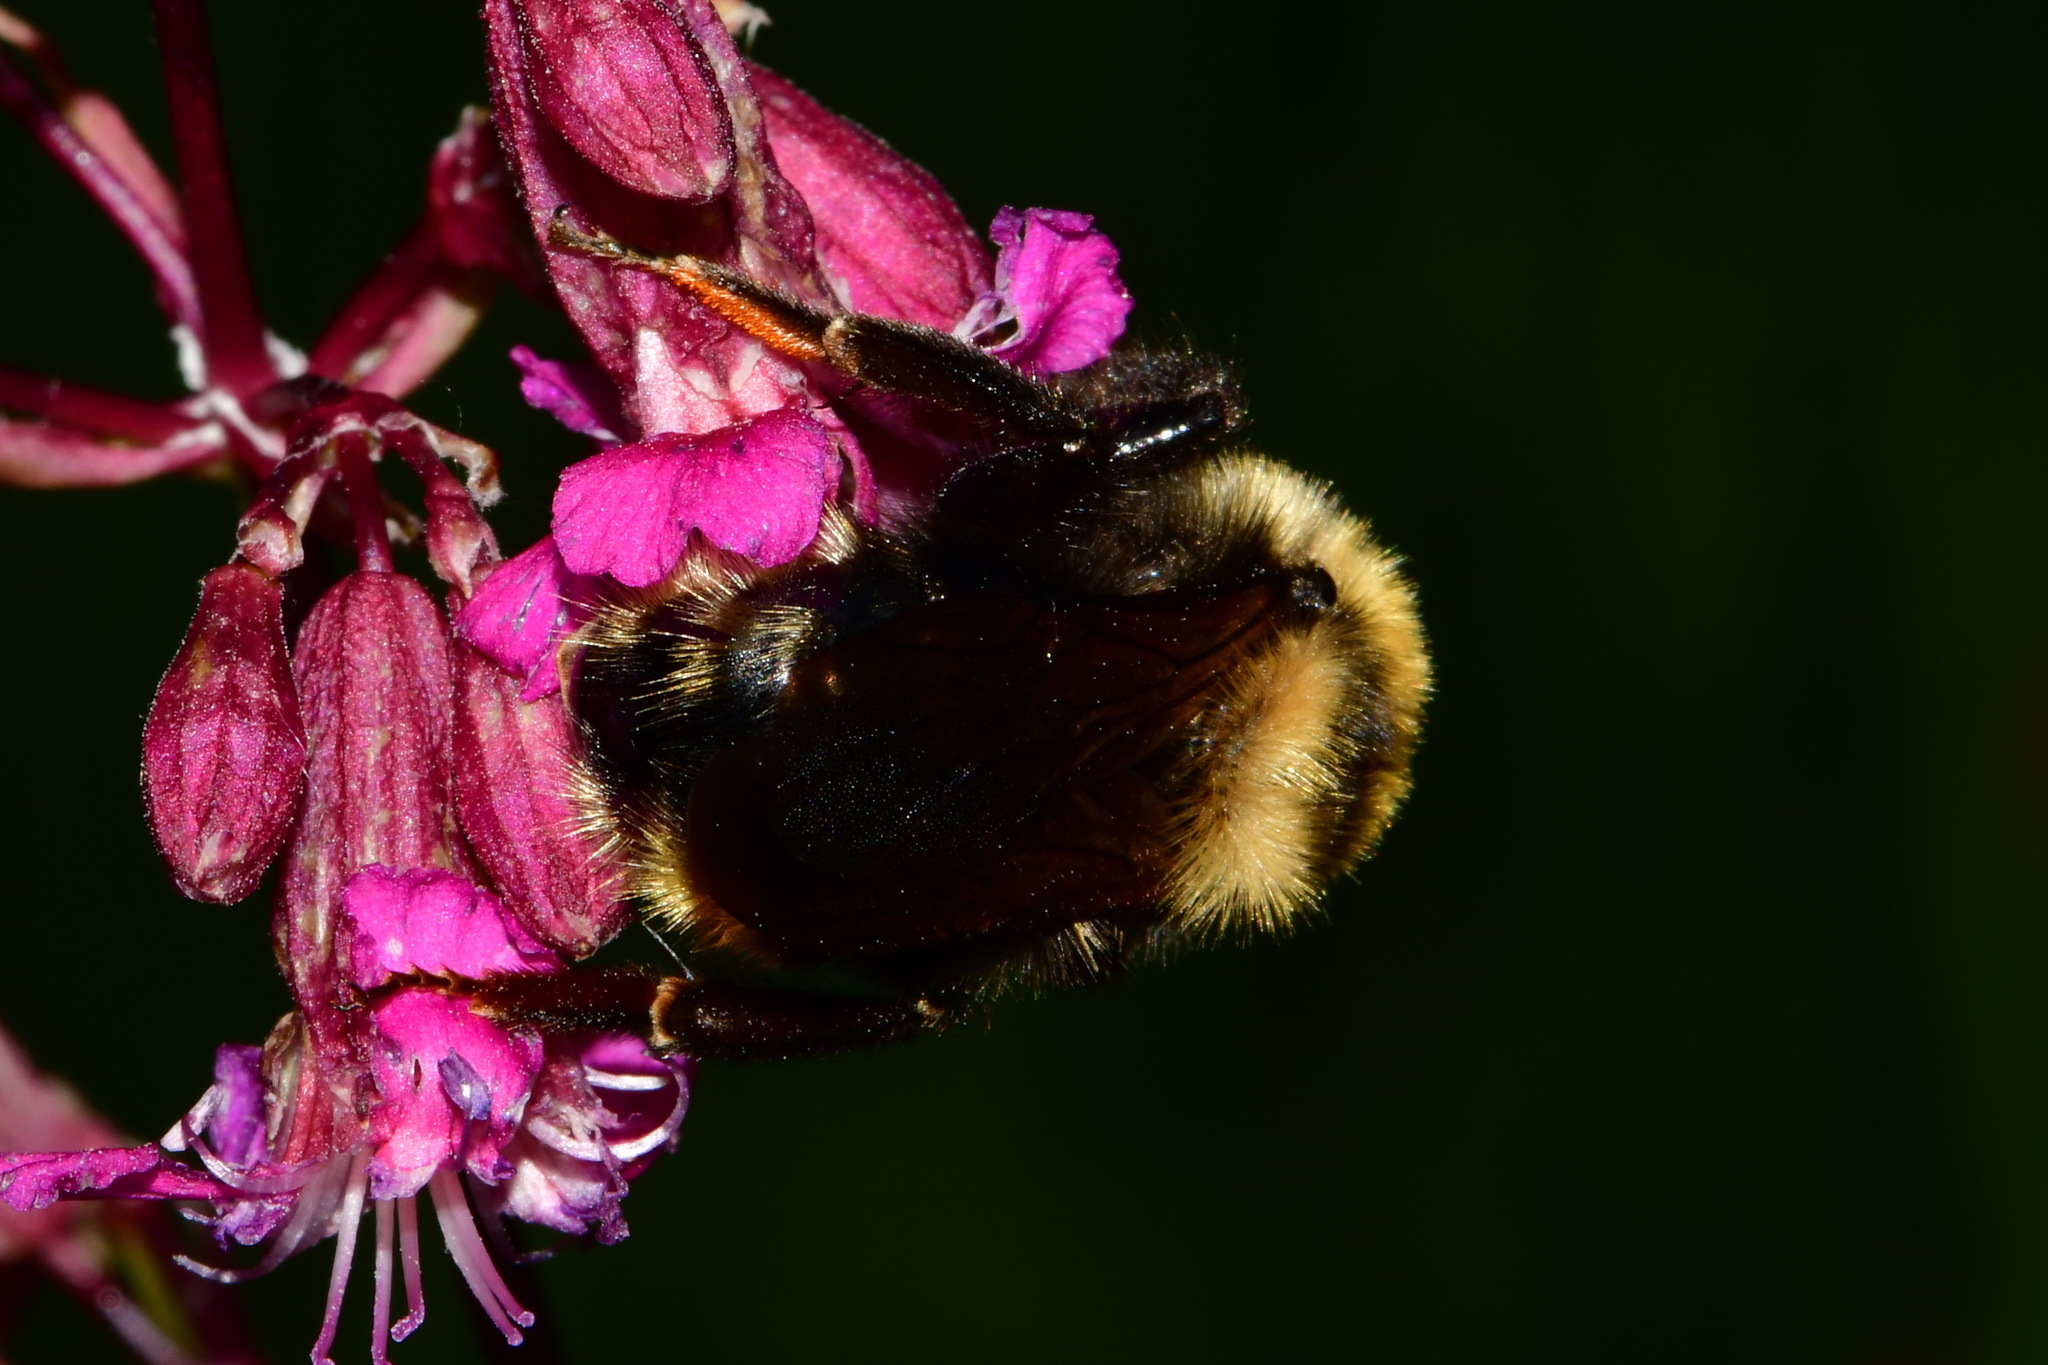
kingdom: Animalia
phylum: Arthropoda
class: Insecta
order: Hymenoptera
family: Apidae
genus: Bombus
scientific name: Bombus campestris
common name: Field cuckoo-bee
